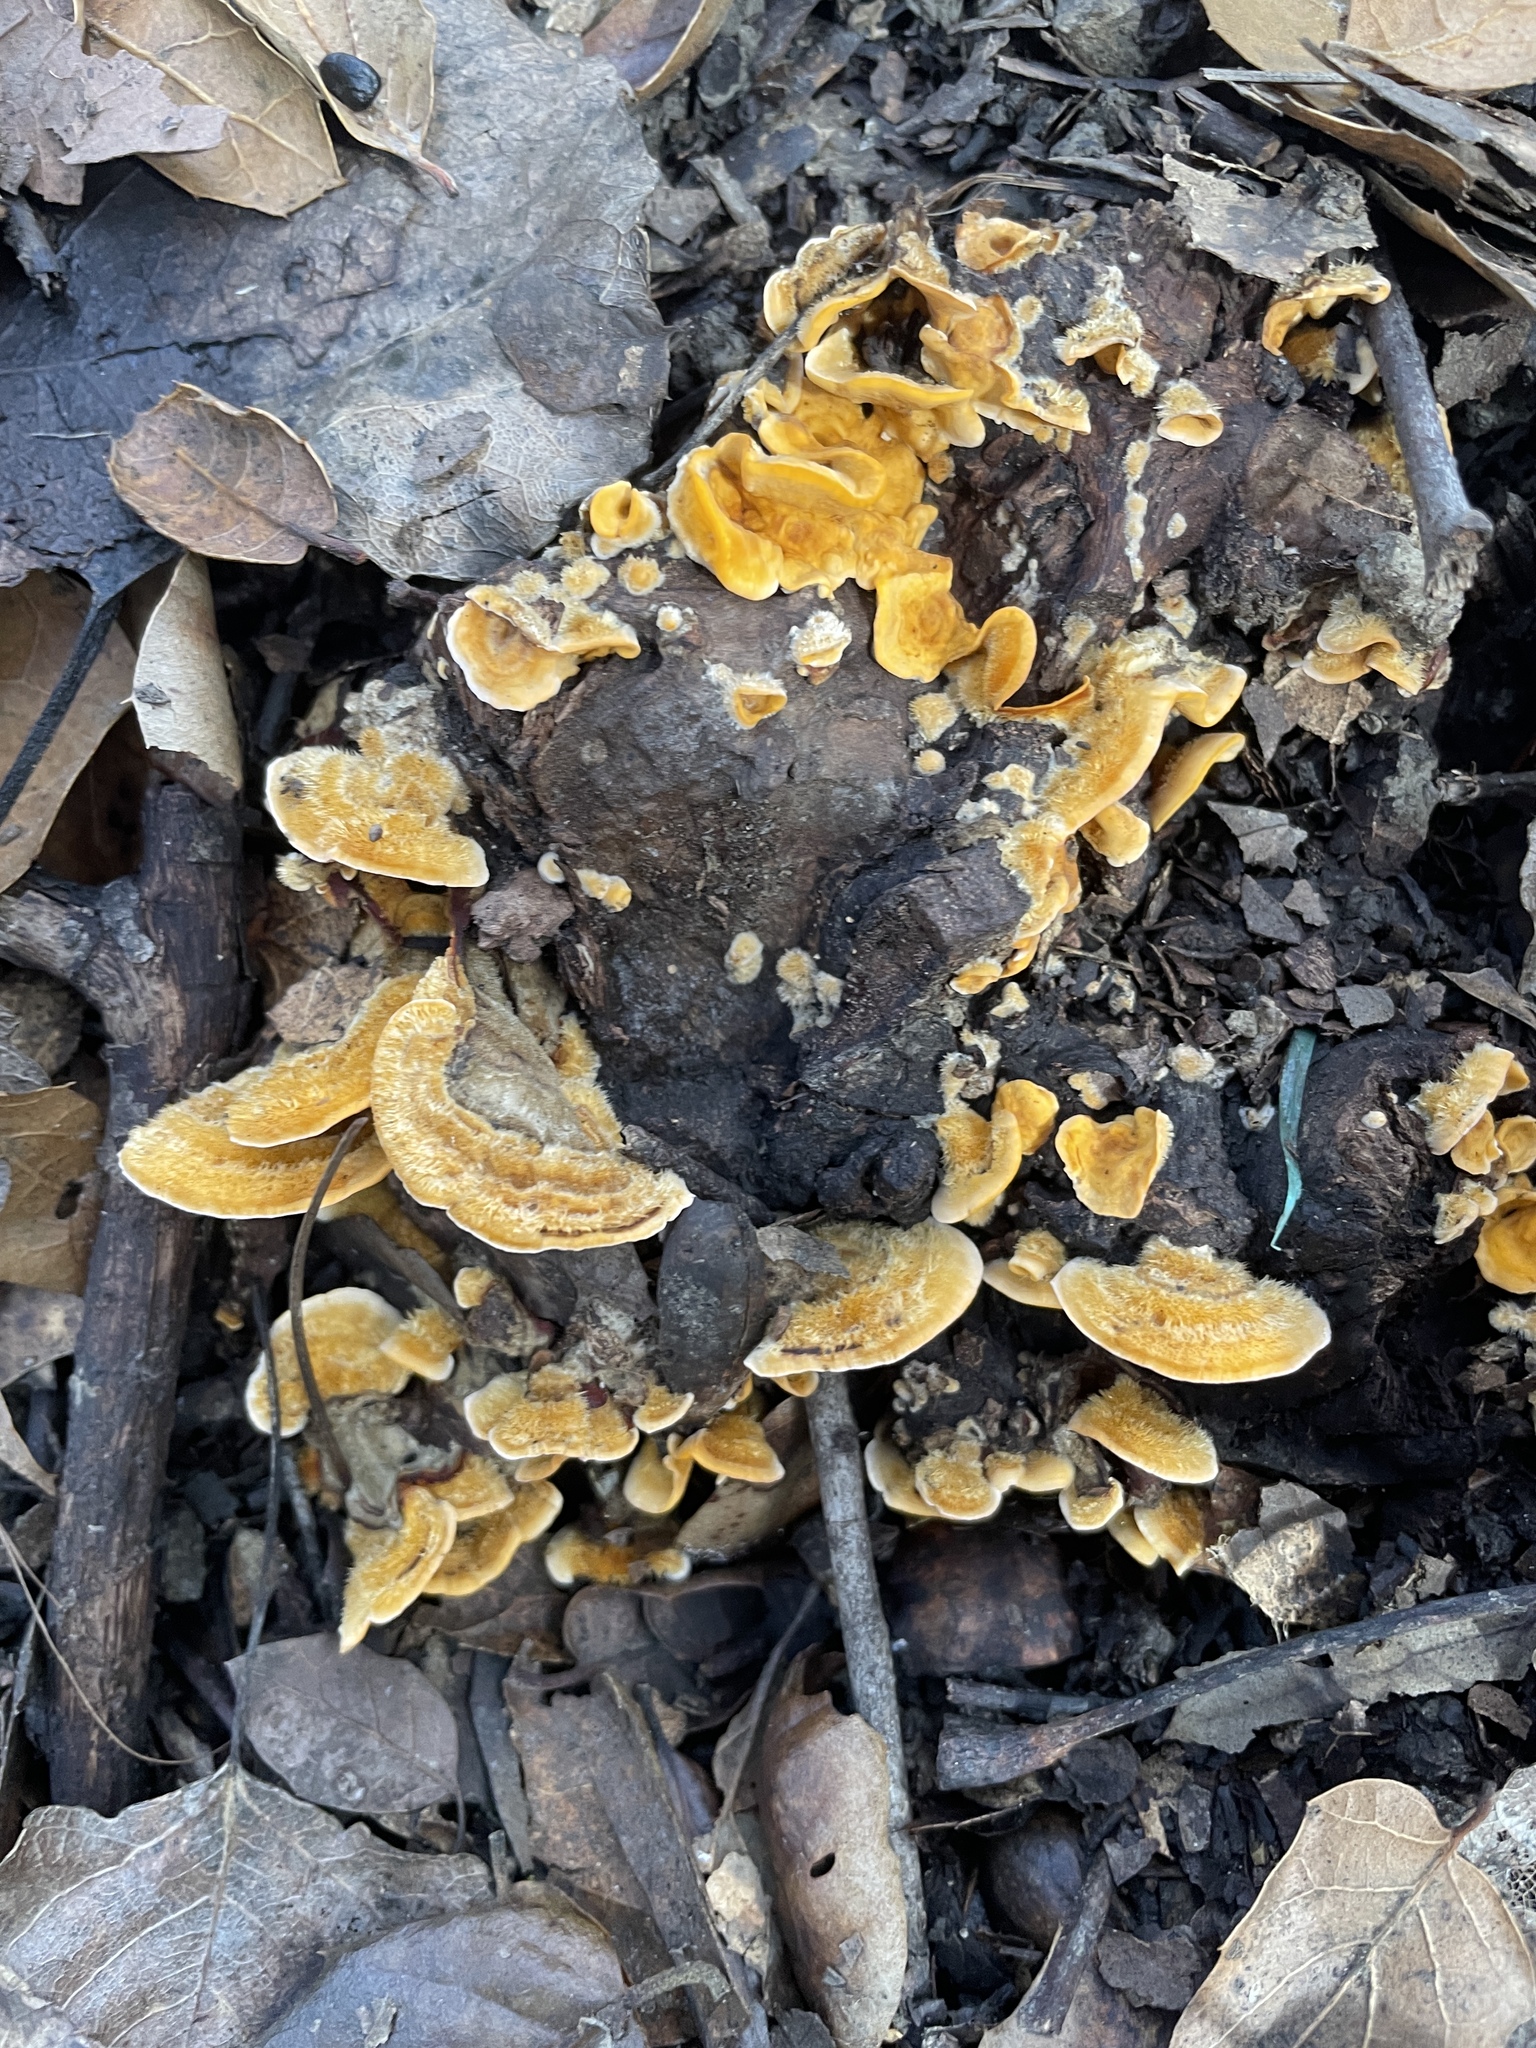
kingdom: Fungi
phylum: Basidiomycota
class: Agaricomycetes
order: Russulales
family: Stereaceae
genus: Stereum
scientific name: Stereum hirsutum
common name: Hairy curtain crust
